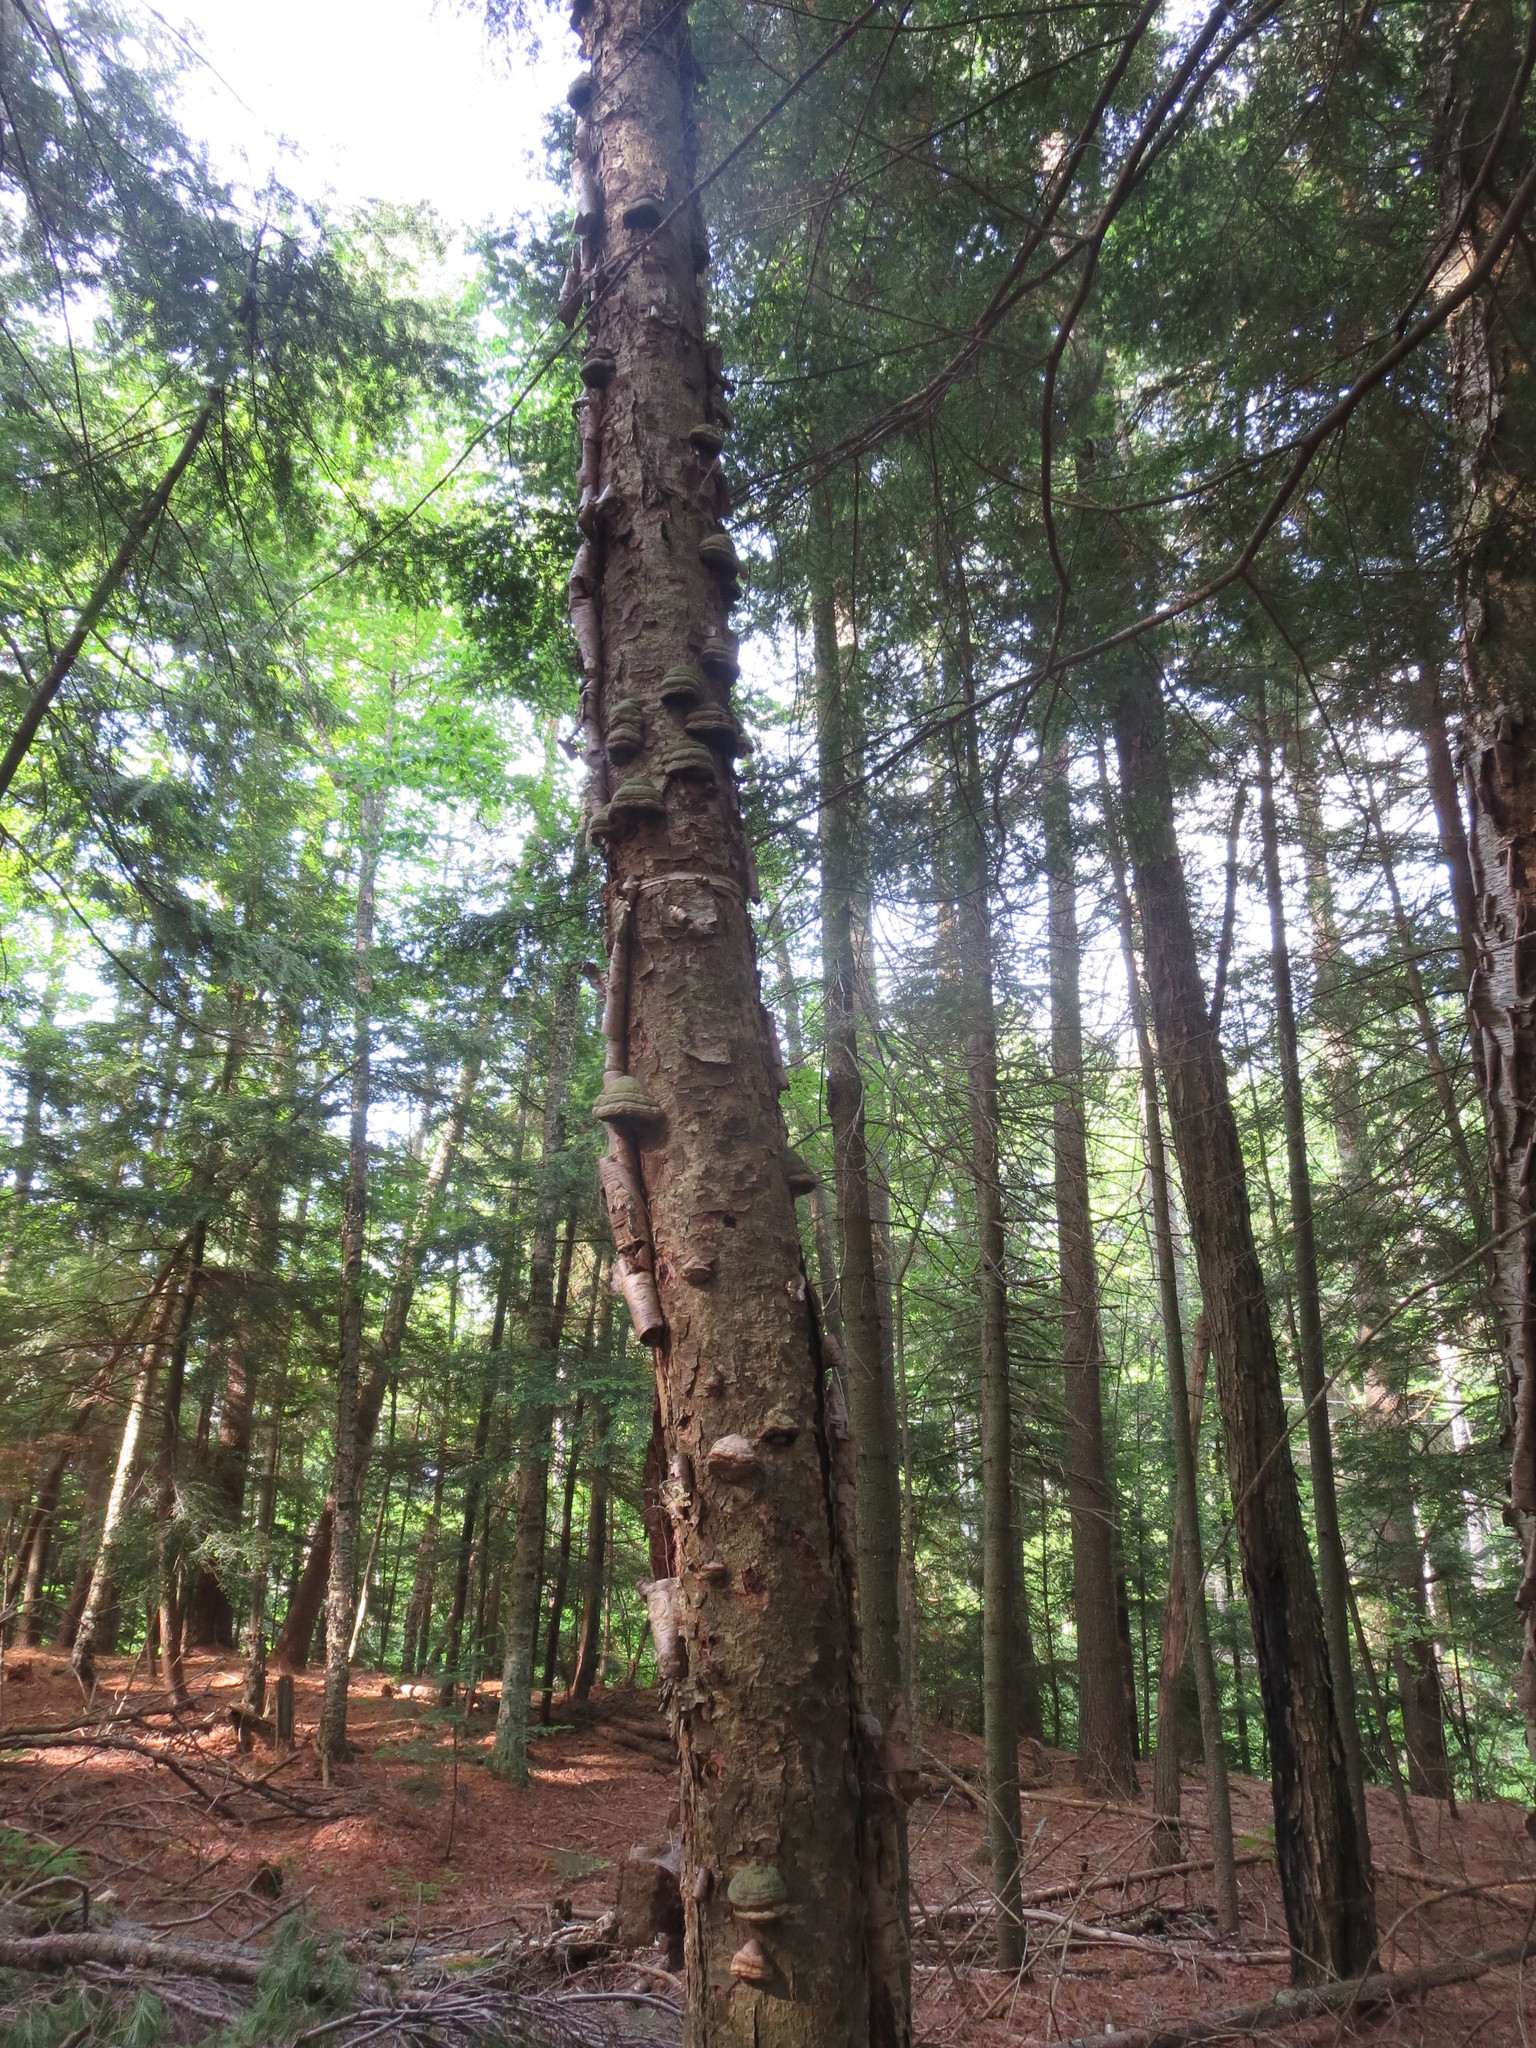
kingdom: Fungi
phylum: Basidiomycota
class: Agaricomycetes
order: Polyporales
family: Polyporaceae
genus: Fomes
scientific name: Fomes fomentarius
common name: Hoof fungus
